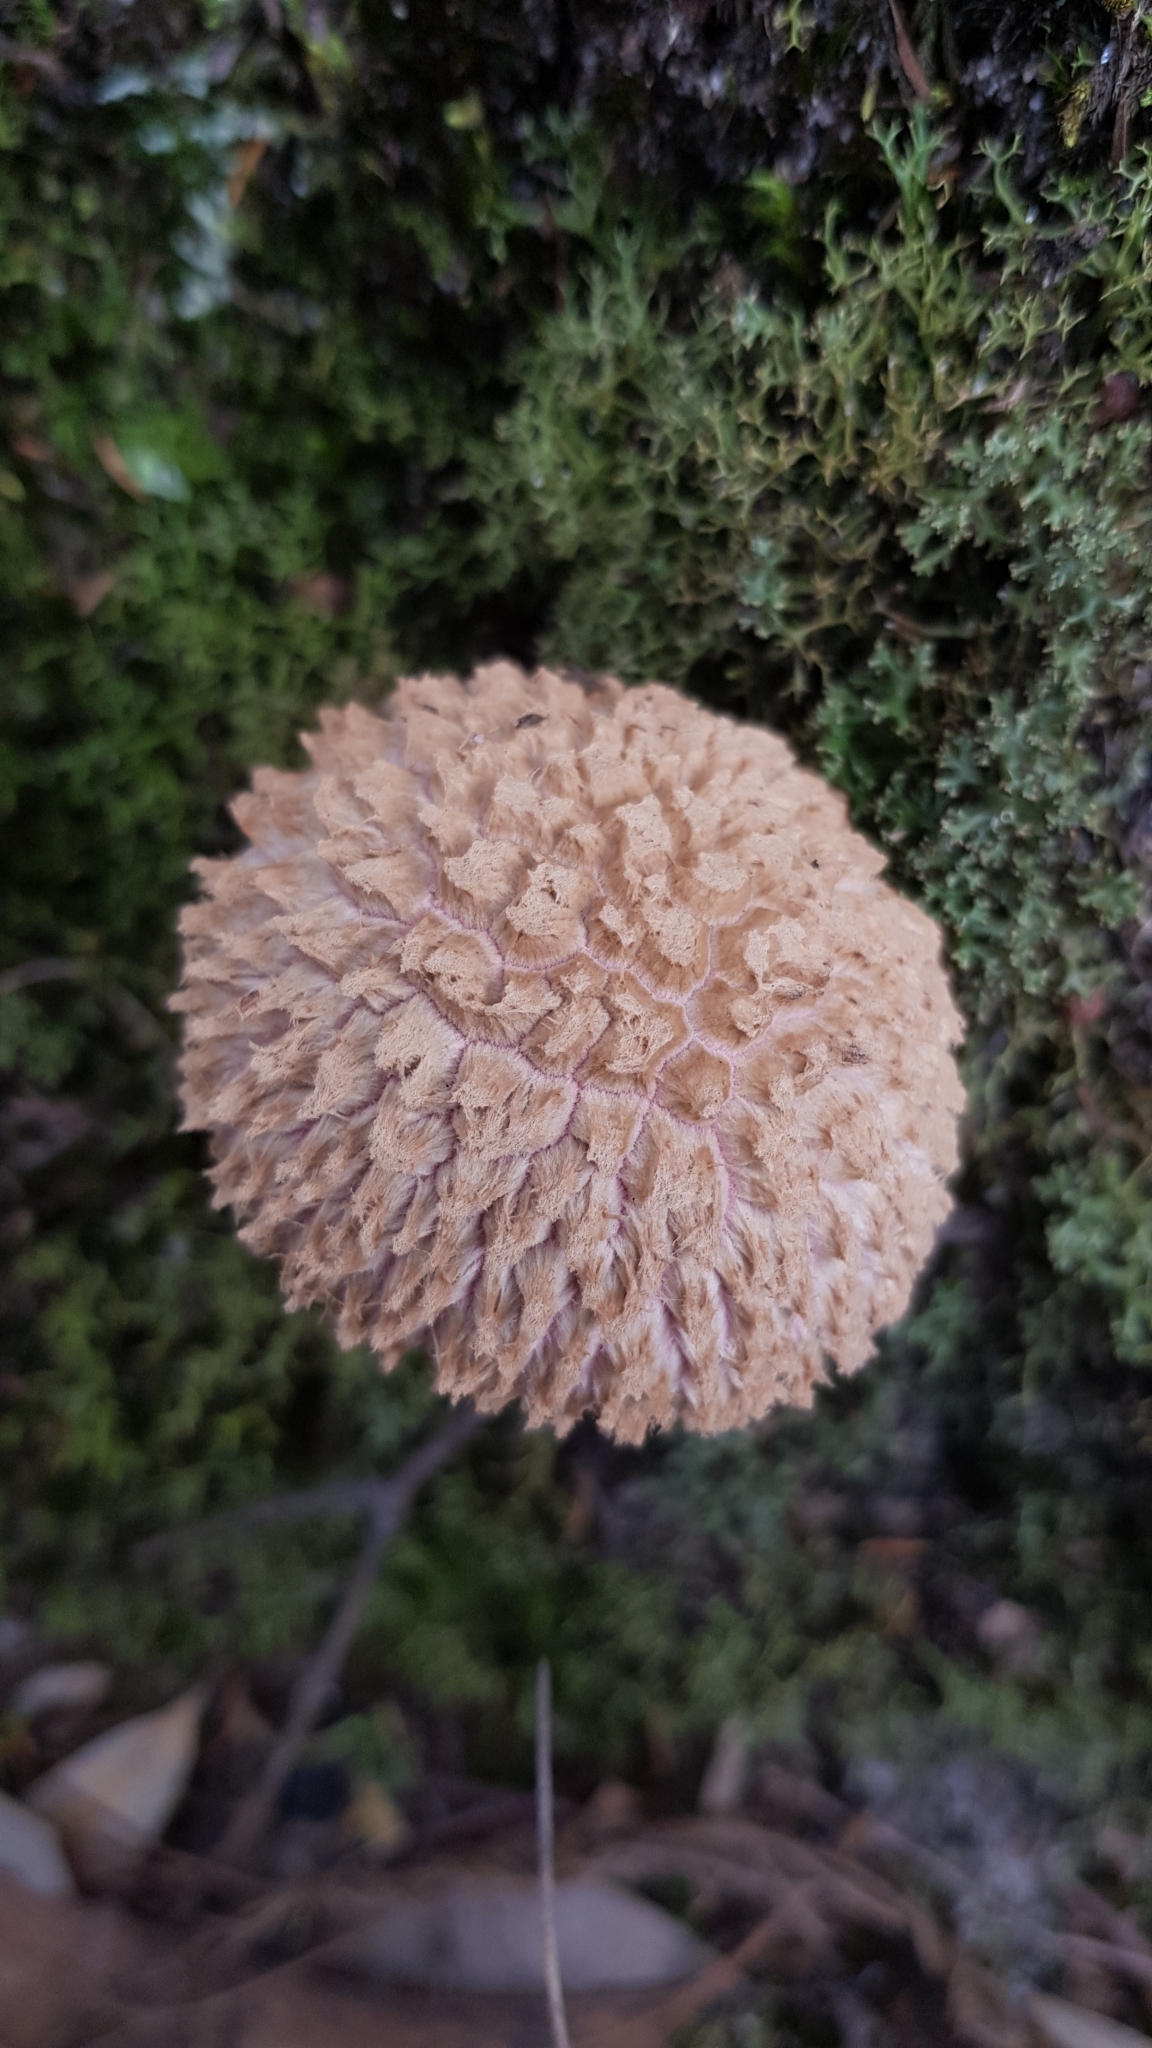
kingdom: Fungi
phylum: Basidiomycota
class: Agaricomycetes
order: Boletales
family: Boletaceae
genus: Strobilomyces
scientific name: Strobilomyces ananiceps
